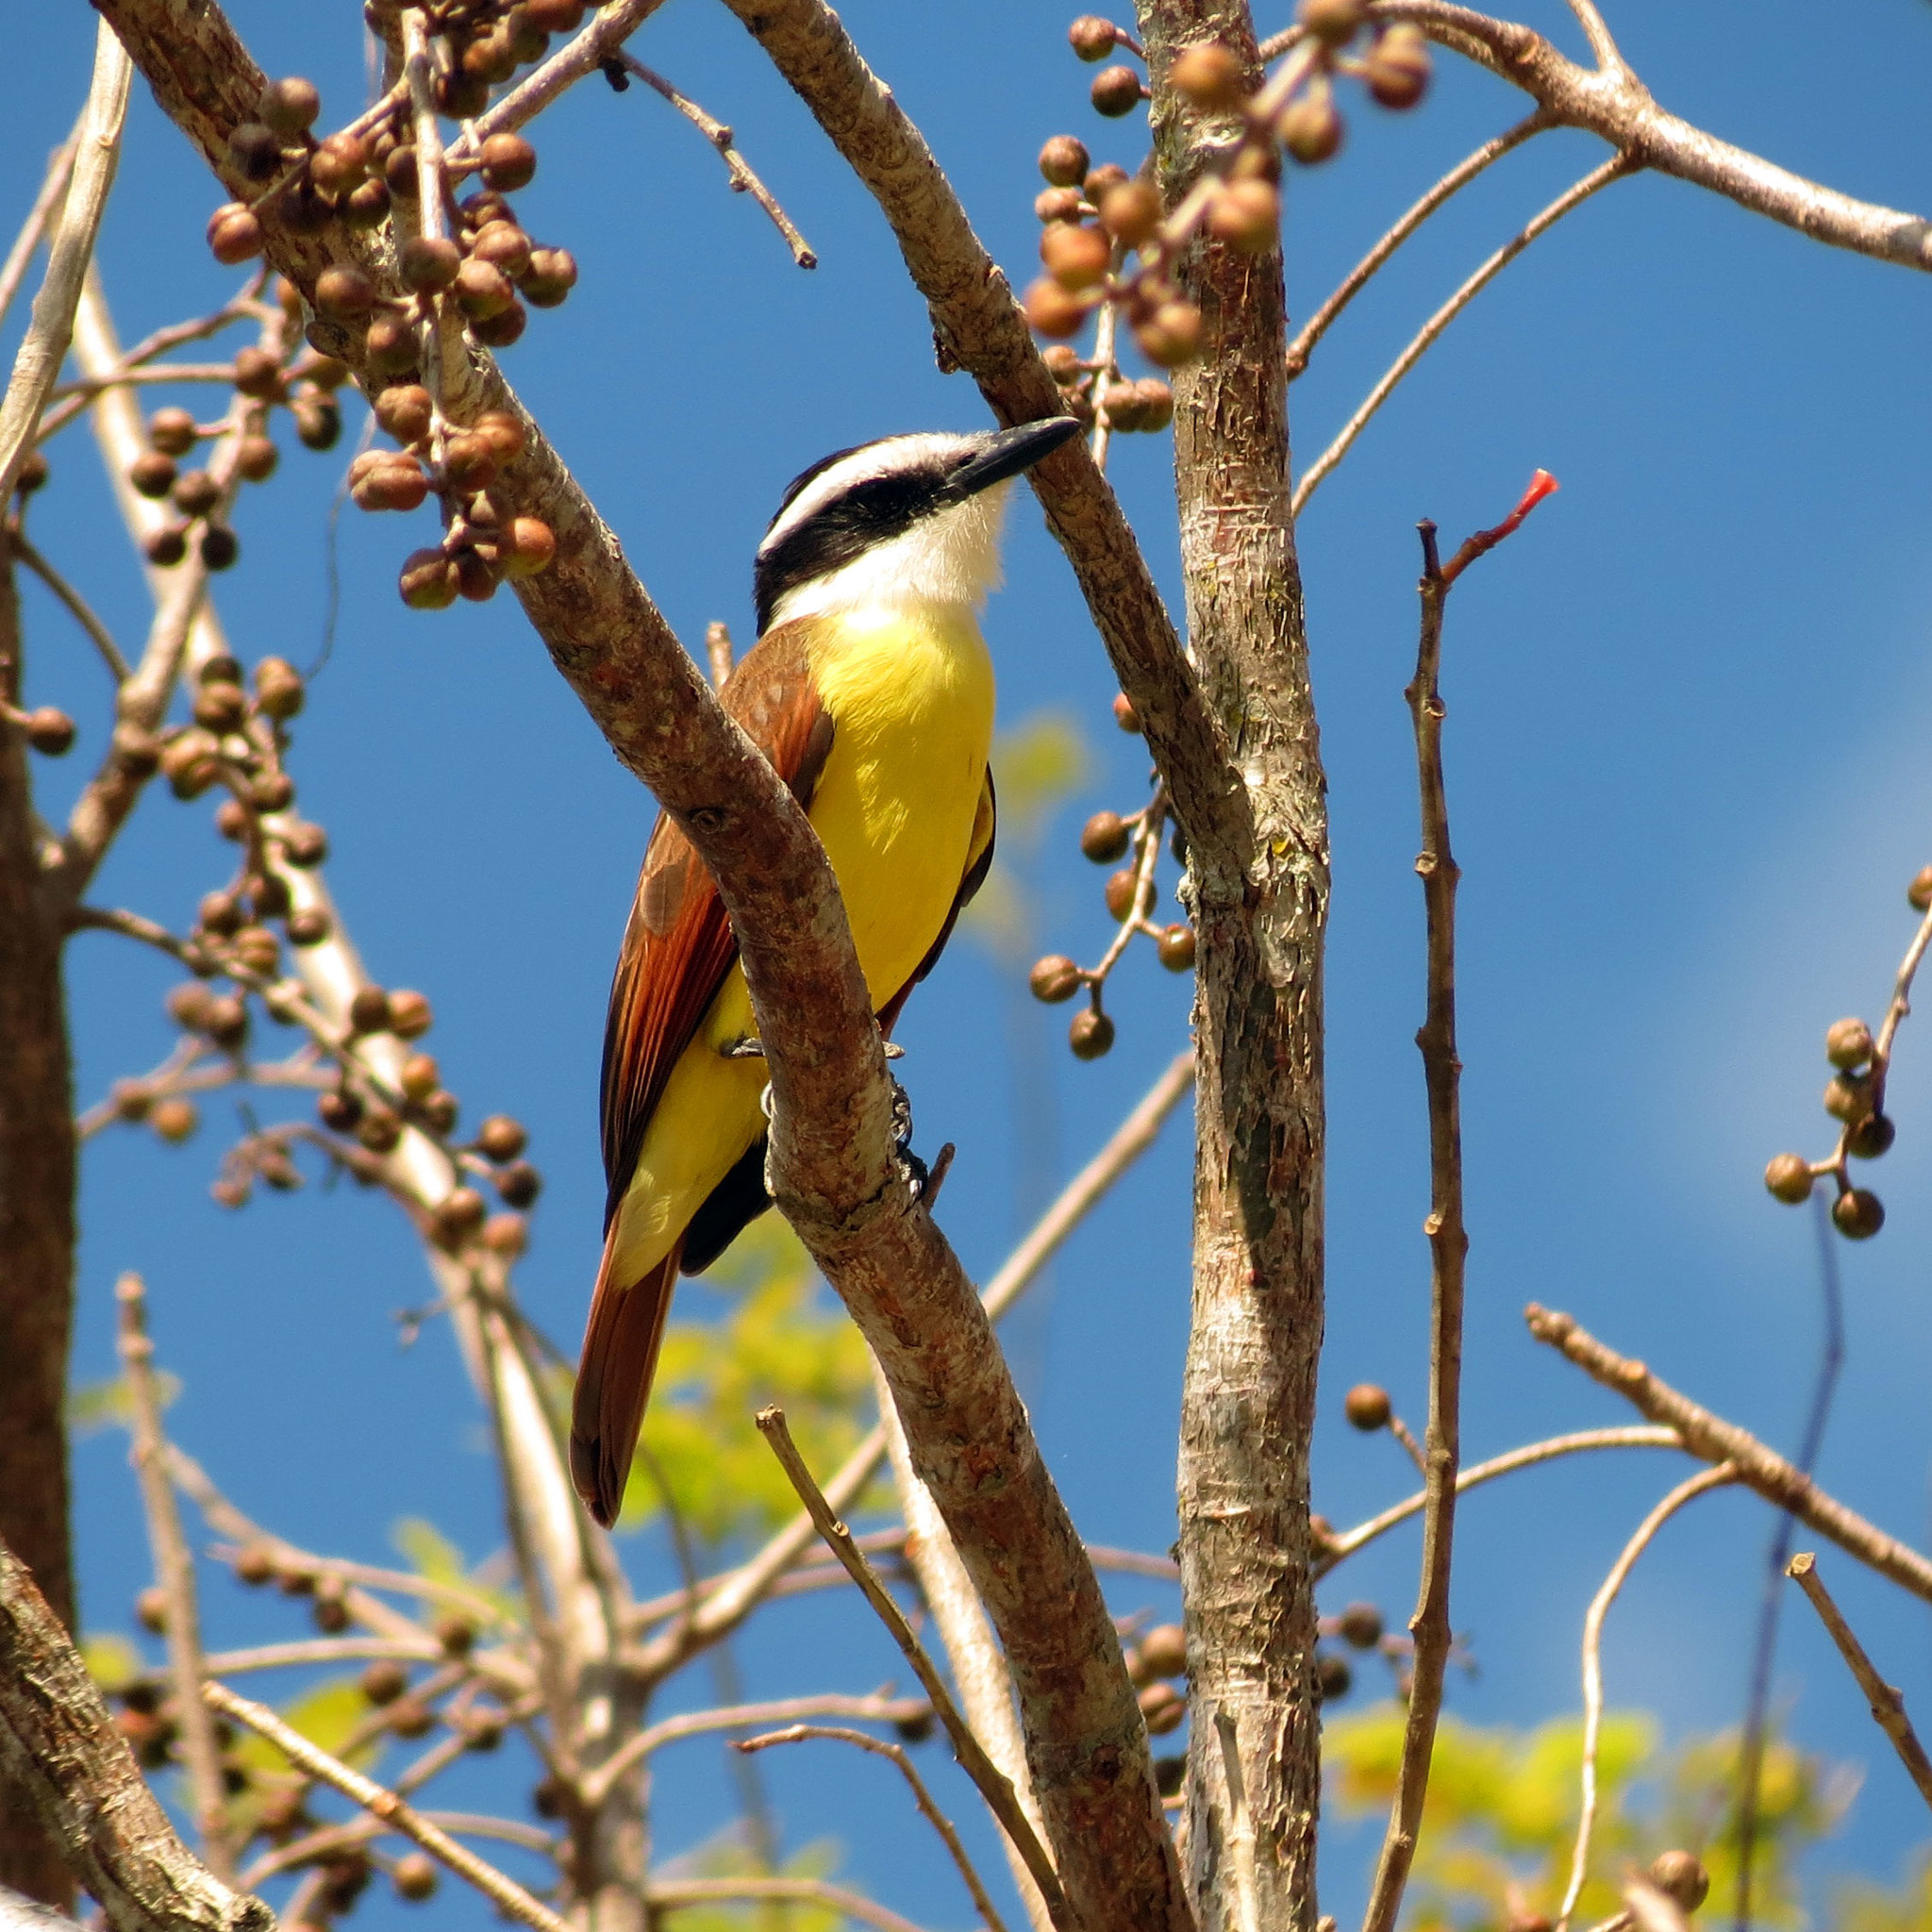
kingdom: Animalia
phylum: Chordata
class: Aves
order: Passeriformes
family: Tyrannidae
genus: Pitangus
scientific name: Pitangus sulphuratus
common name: Great kiskadee
